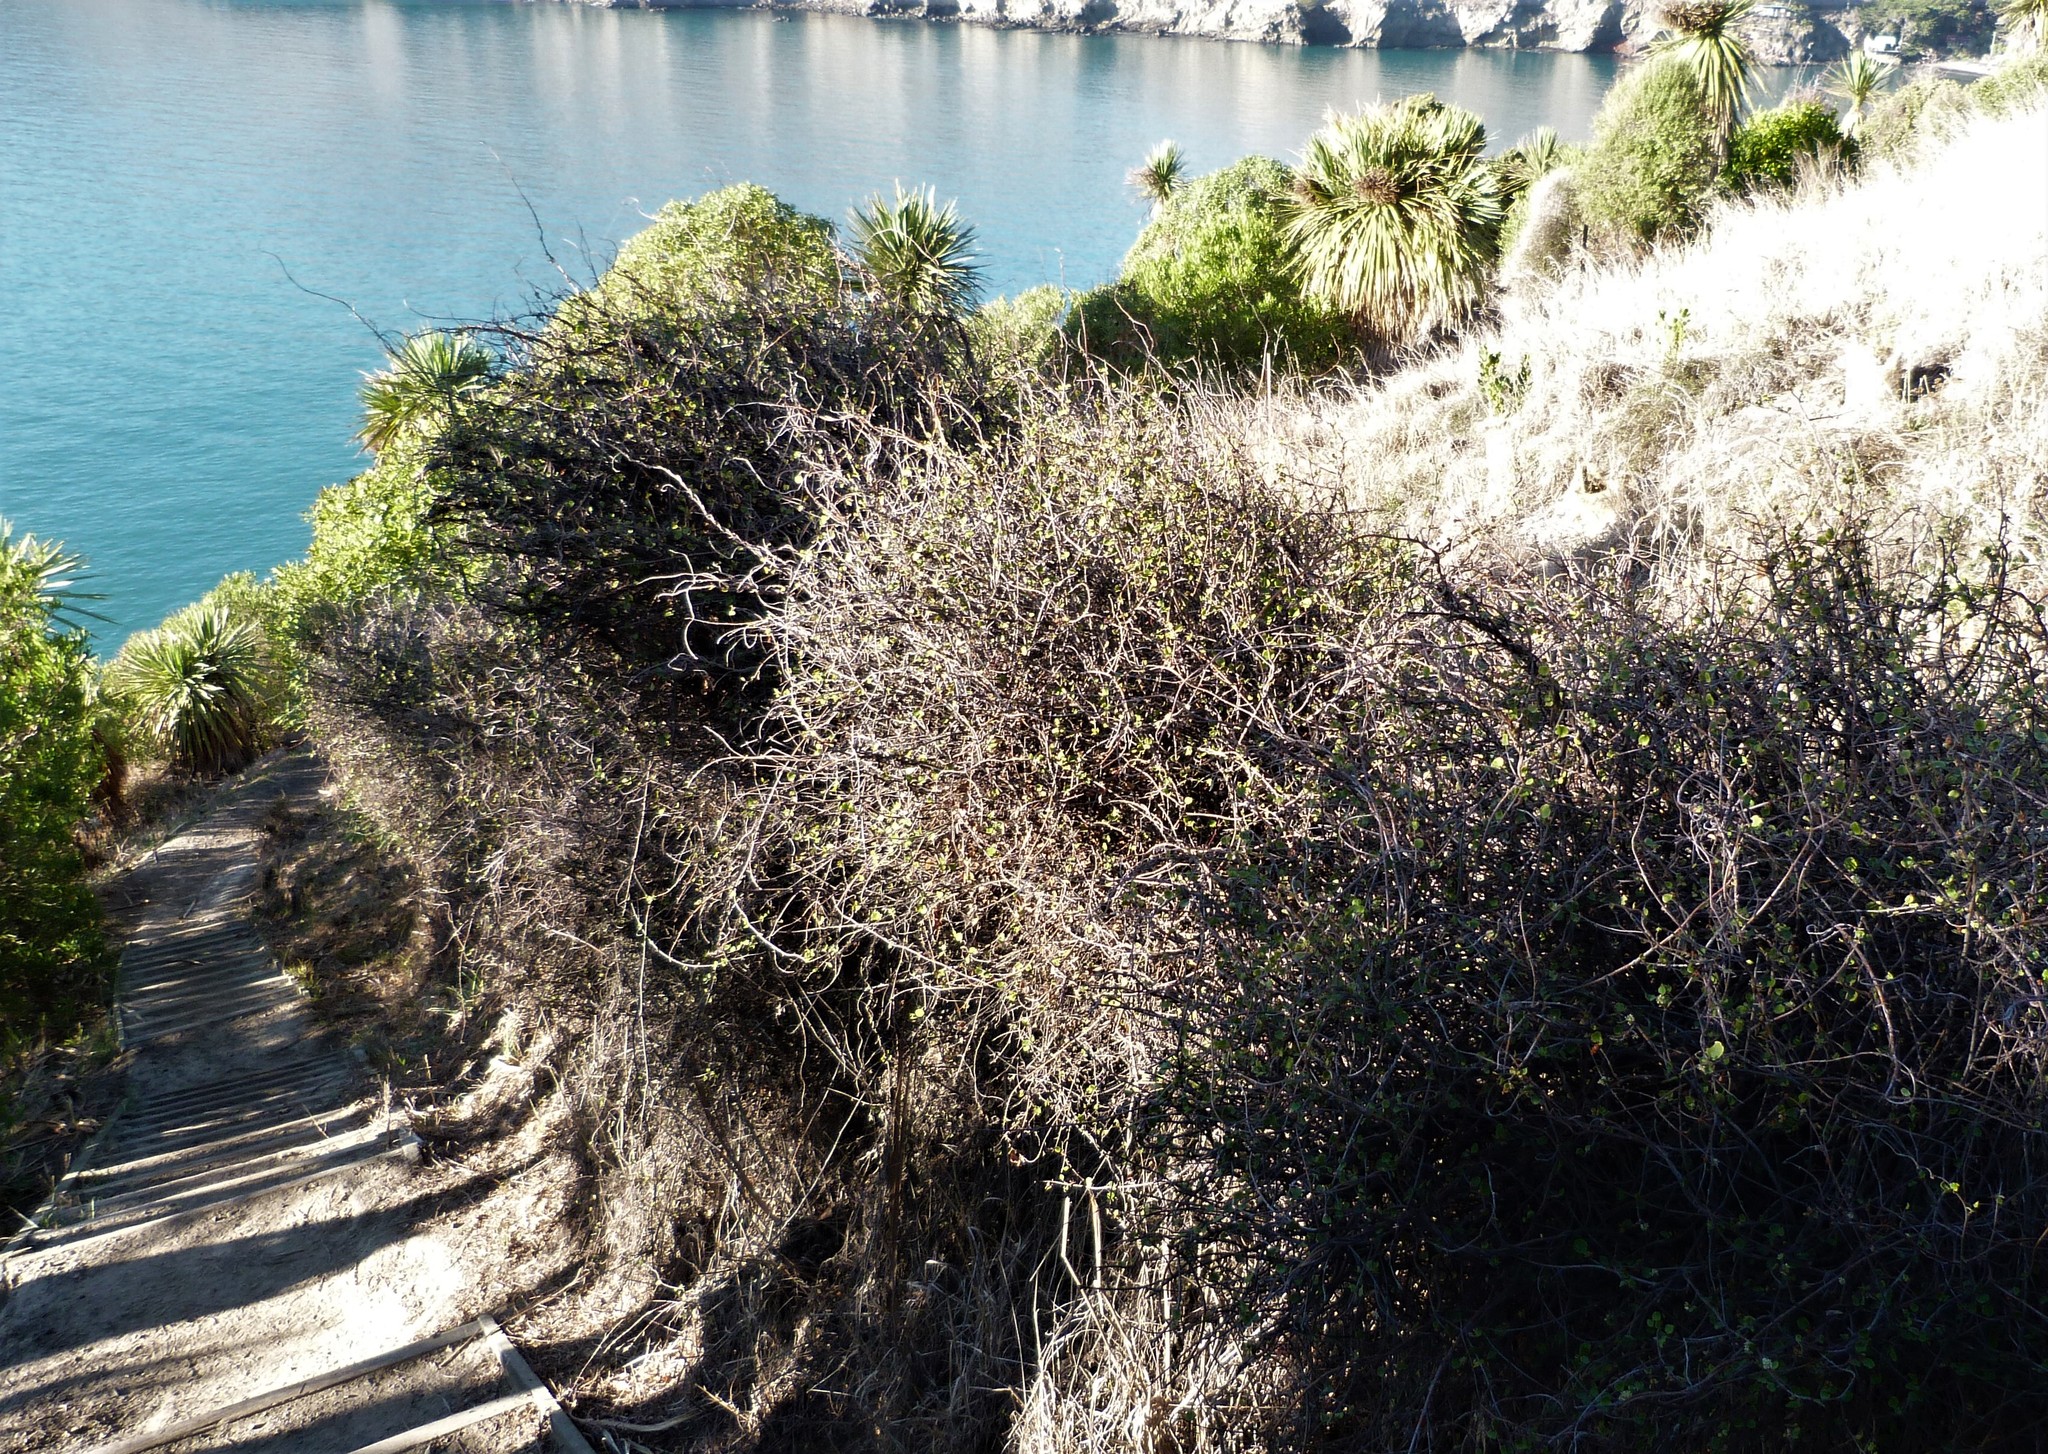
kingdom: Plantae
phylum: Tracheophyta
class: Magnoliopsida
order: Caryophyllales
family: Polygonaceae
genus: Muehlenbeckia
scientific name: Muehlenbeckia complexa
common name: Wireplant
